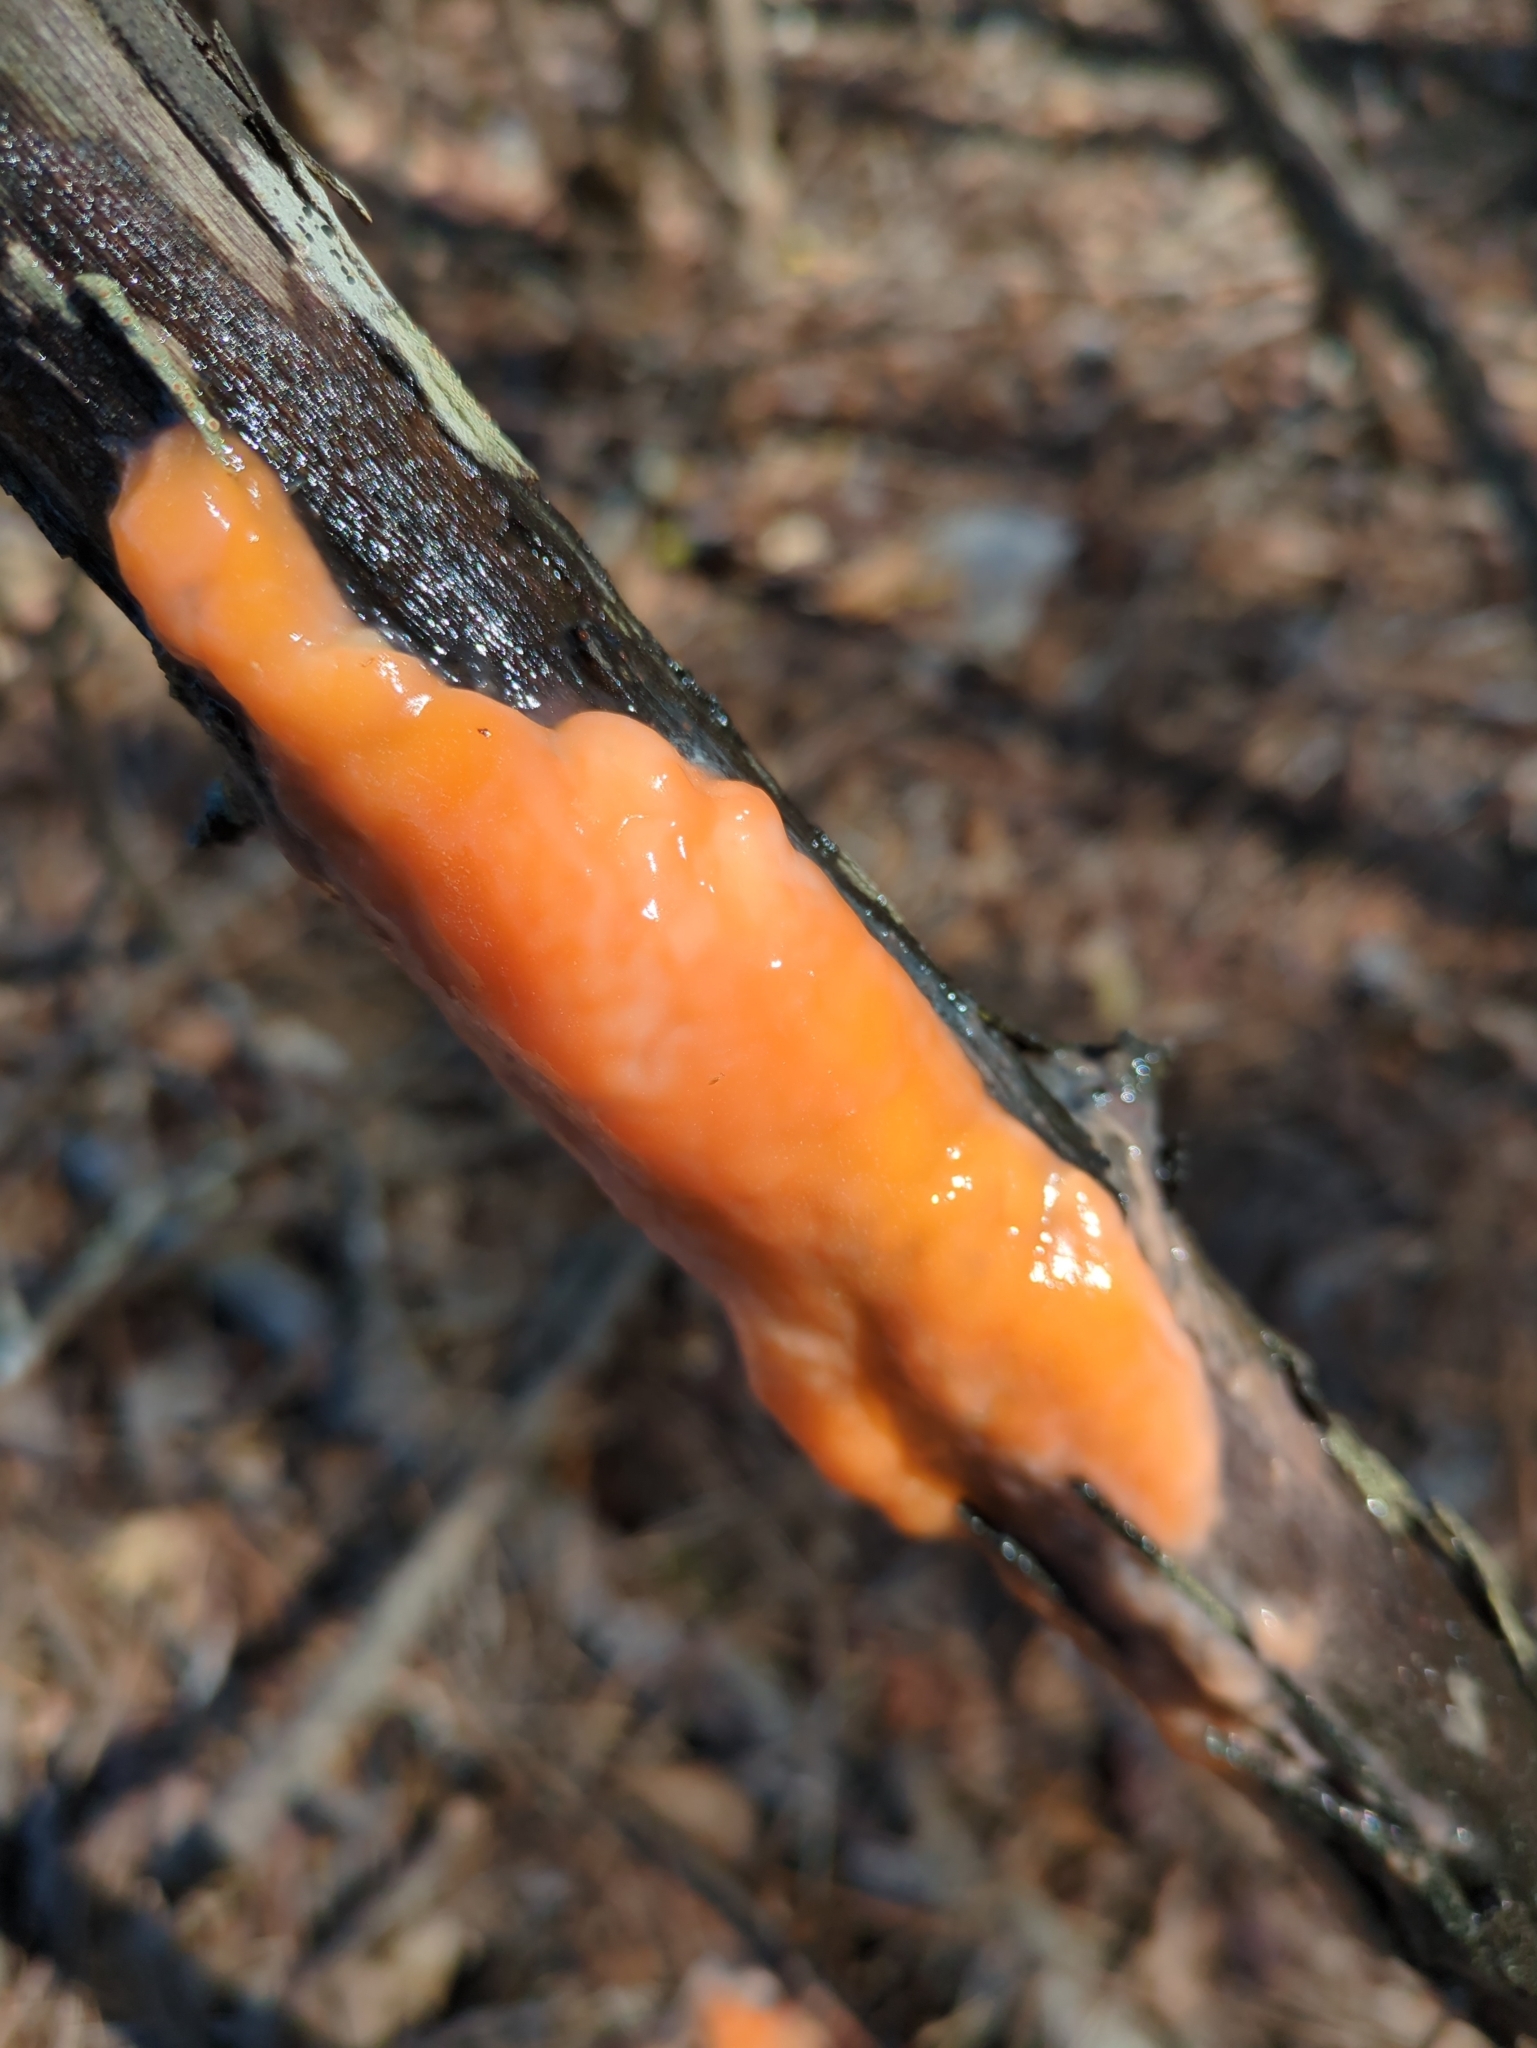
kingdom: Fungi
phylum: Ascomycota
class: Sordariomycetes
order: Hypocreales
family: Nectriaceae
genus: Fusicolla
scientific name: Fusicolla merismoides
